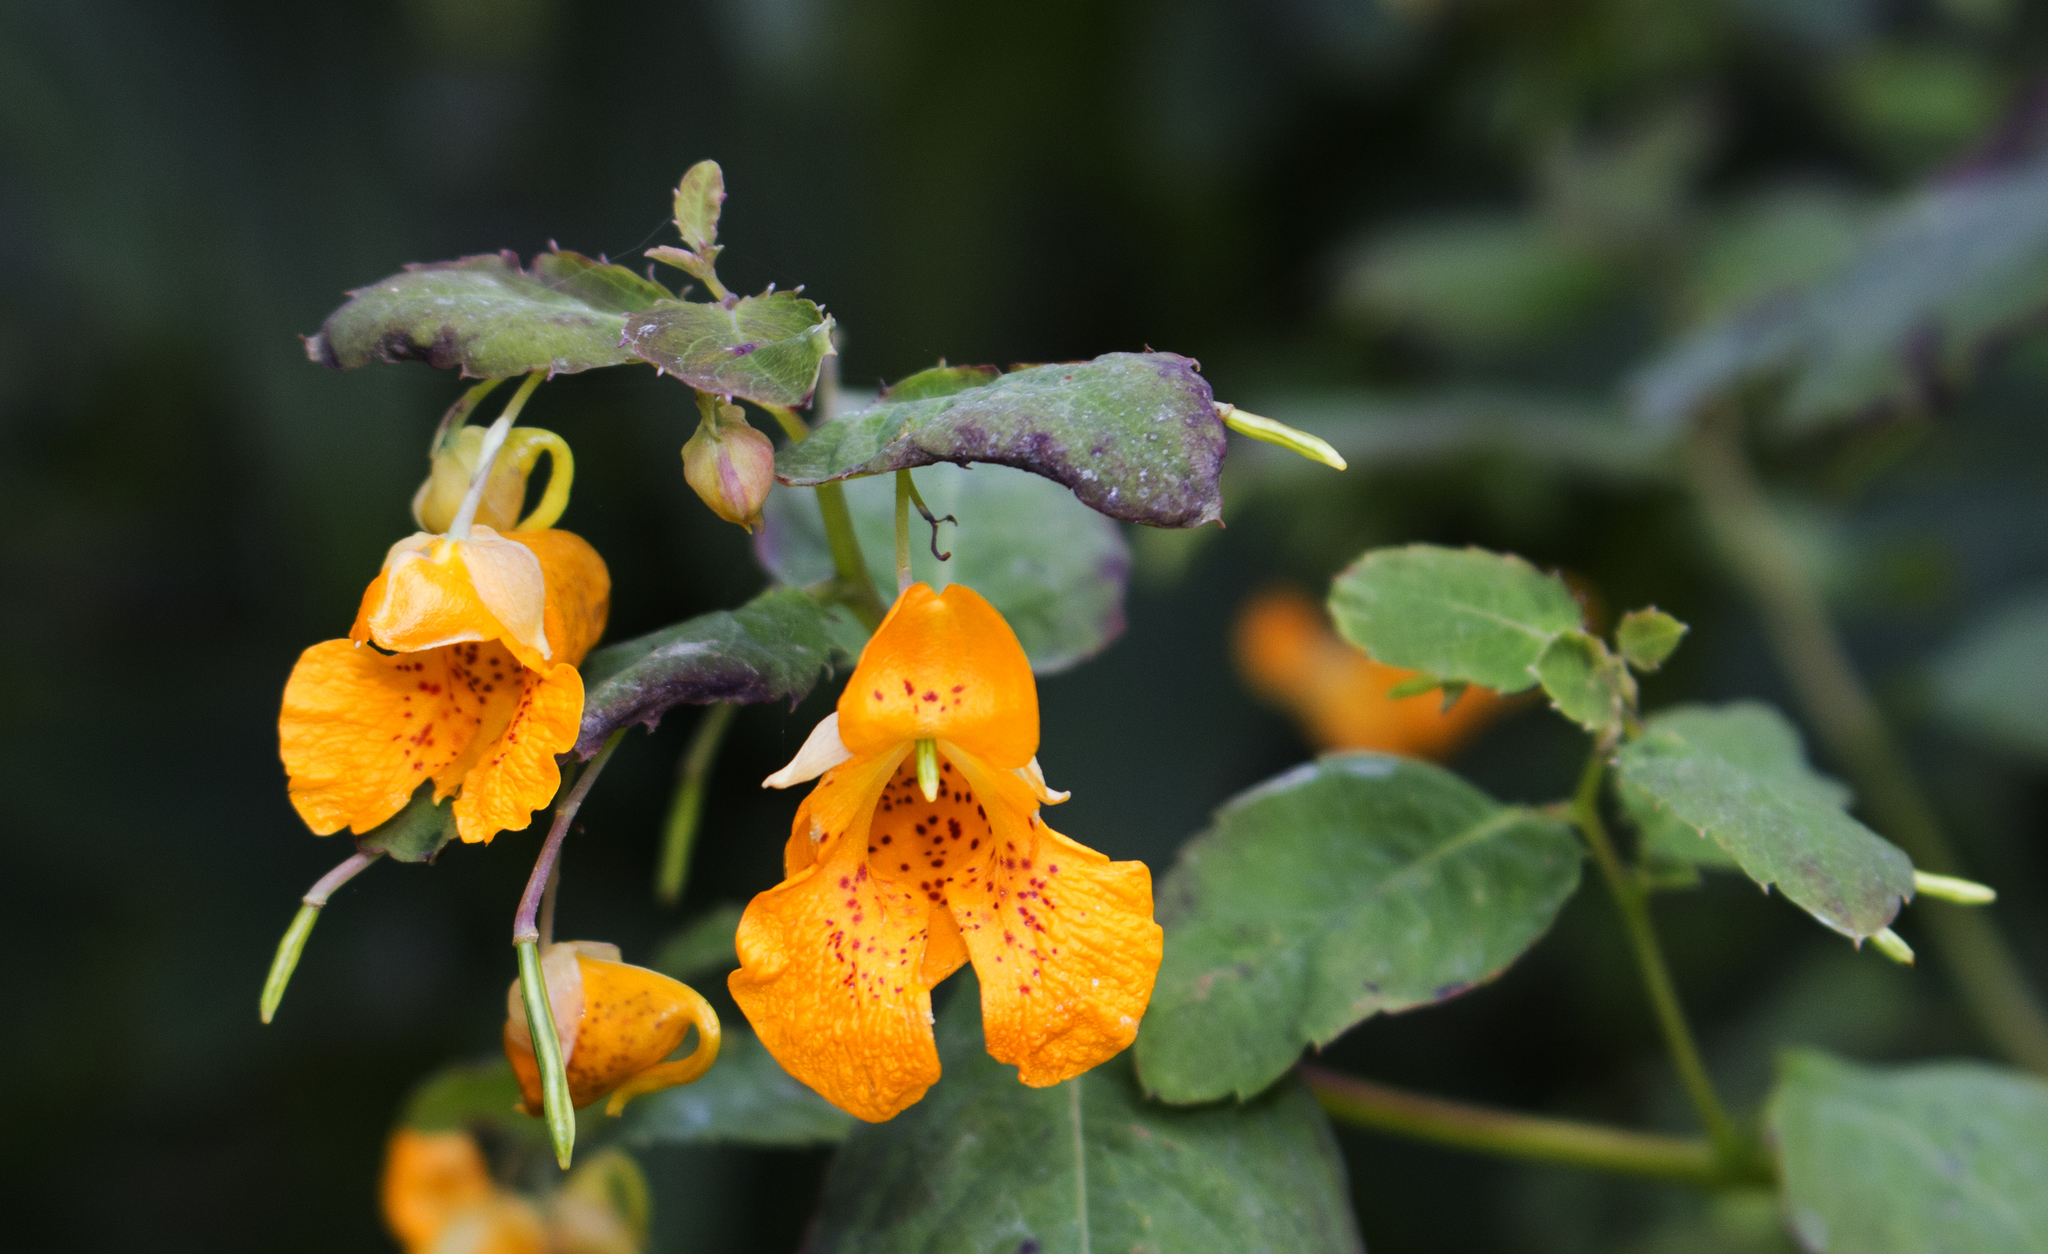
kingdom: Plantae
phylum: Tracheophyta
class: Magnoliopsida
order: Ericales
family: Balsaminaceae
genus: Impatiens
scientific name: Impatiens capensis
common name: Orange balsam
